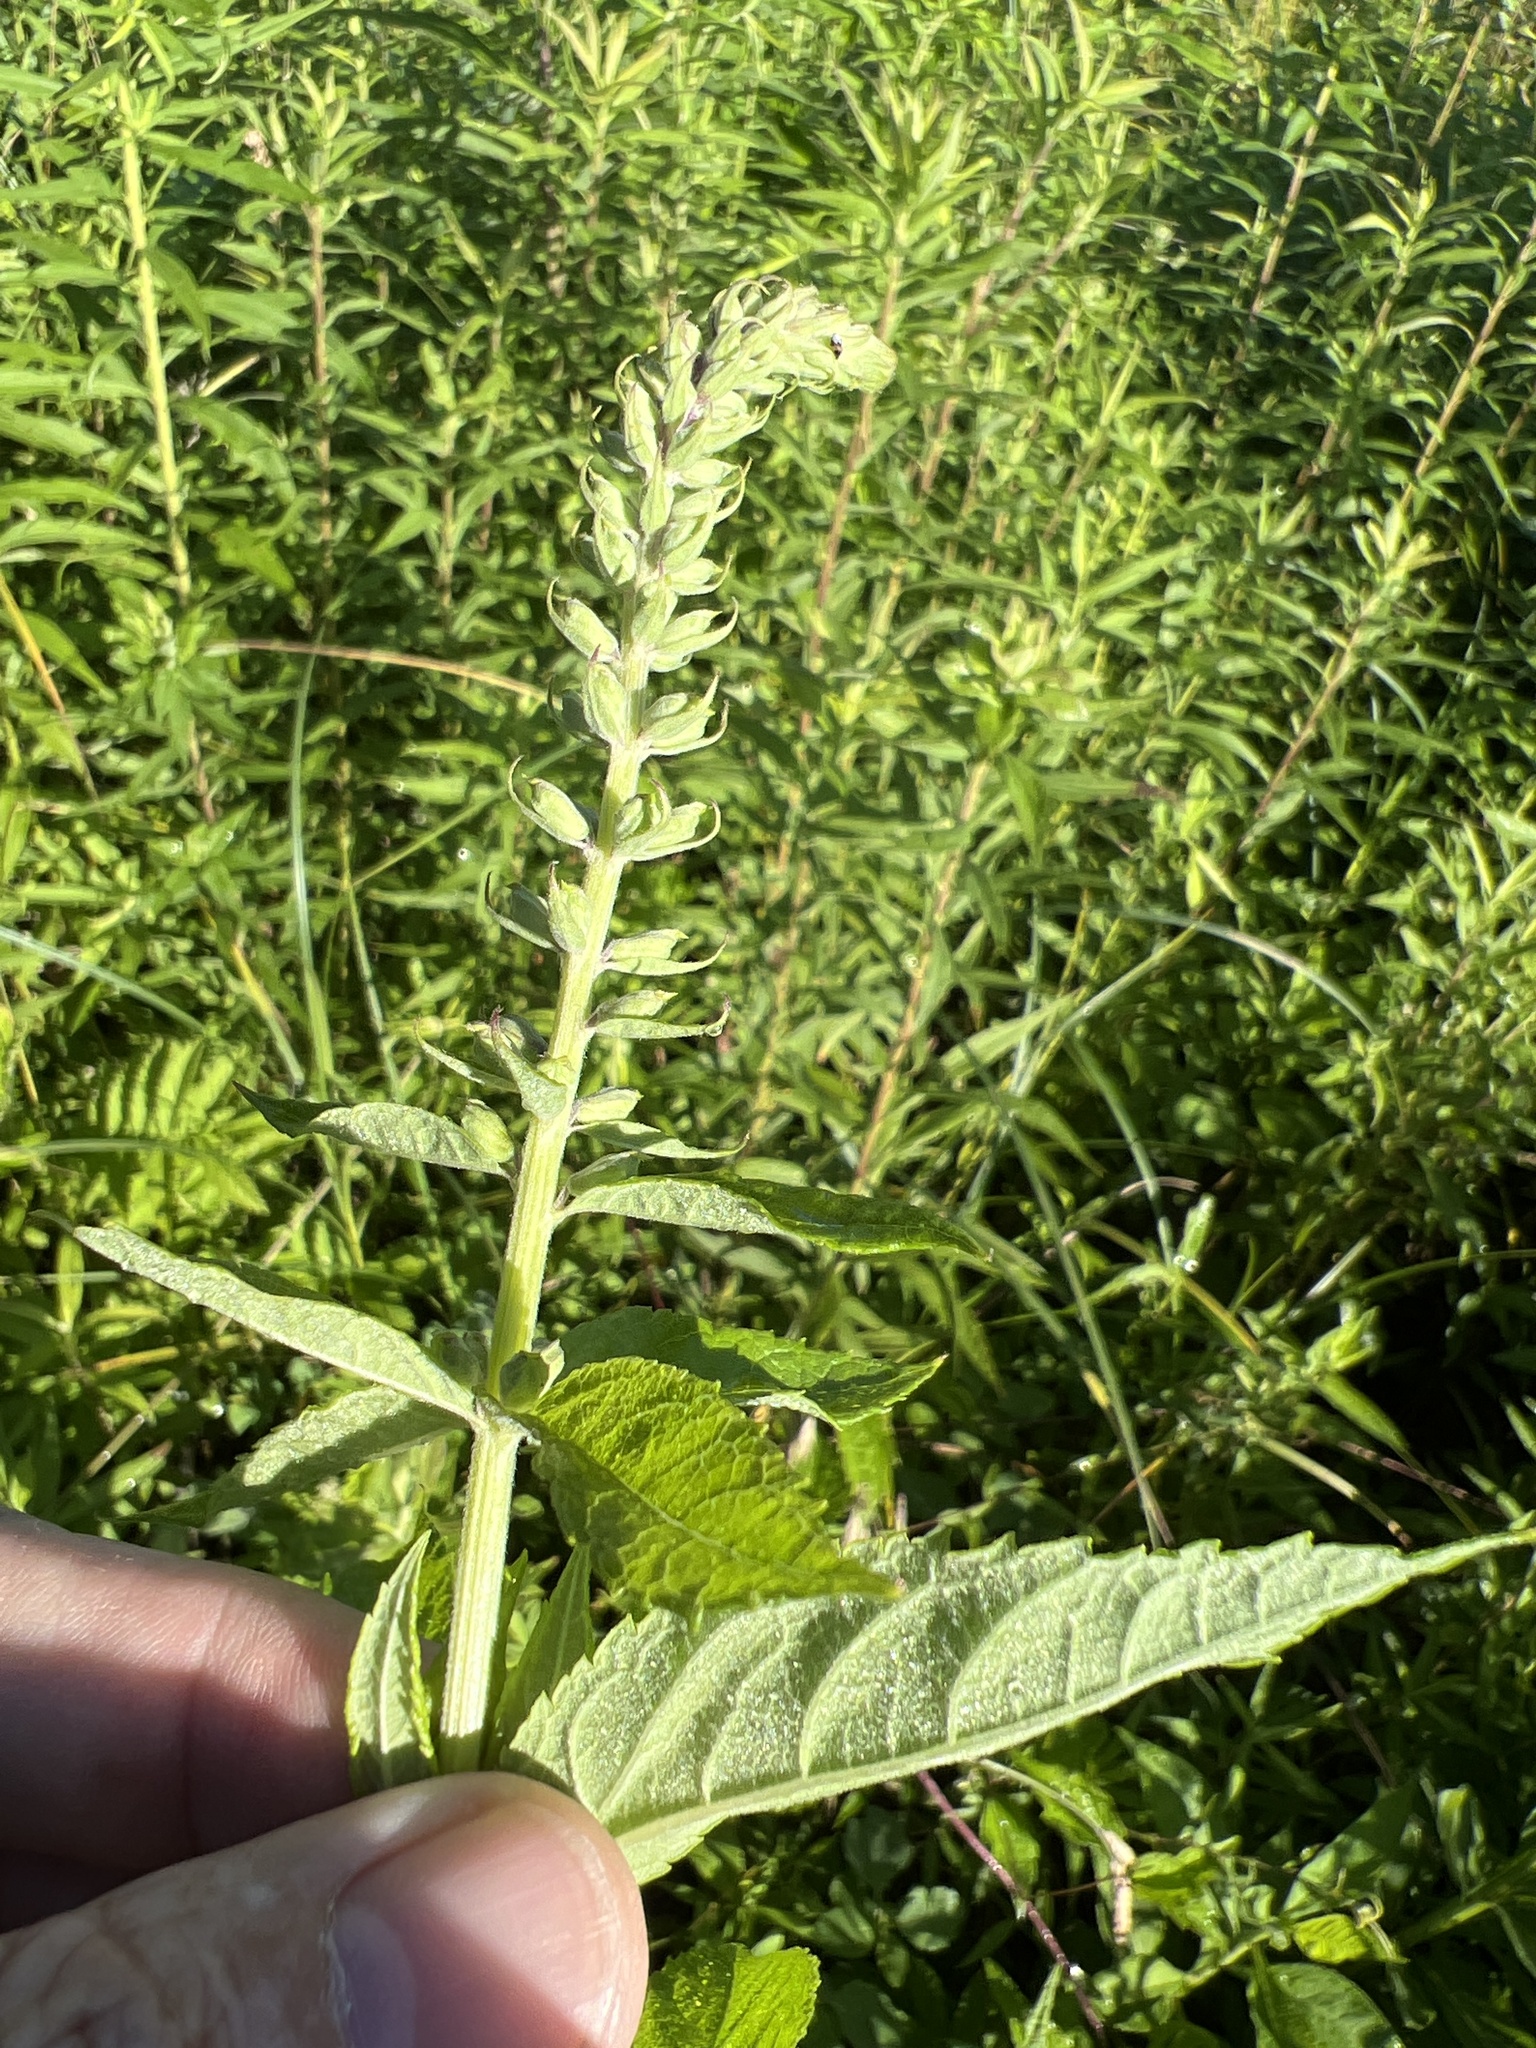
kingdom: Plantae
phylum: Tracheophyta
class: Magnoliopsida
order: Lamiales
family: Lamiaceae
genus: Teucrium
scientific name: Teucrium canadense
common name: American germander
